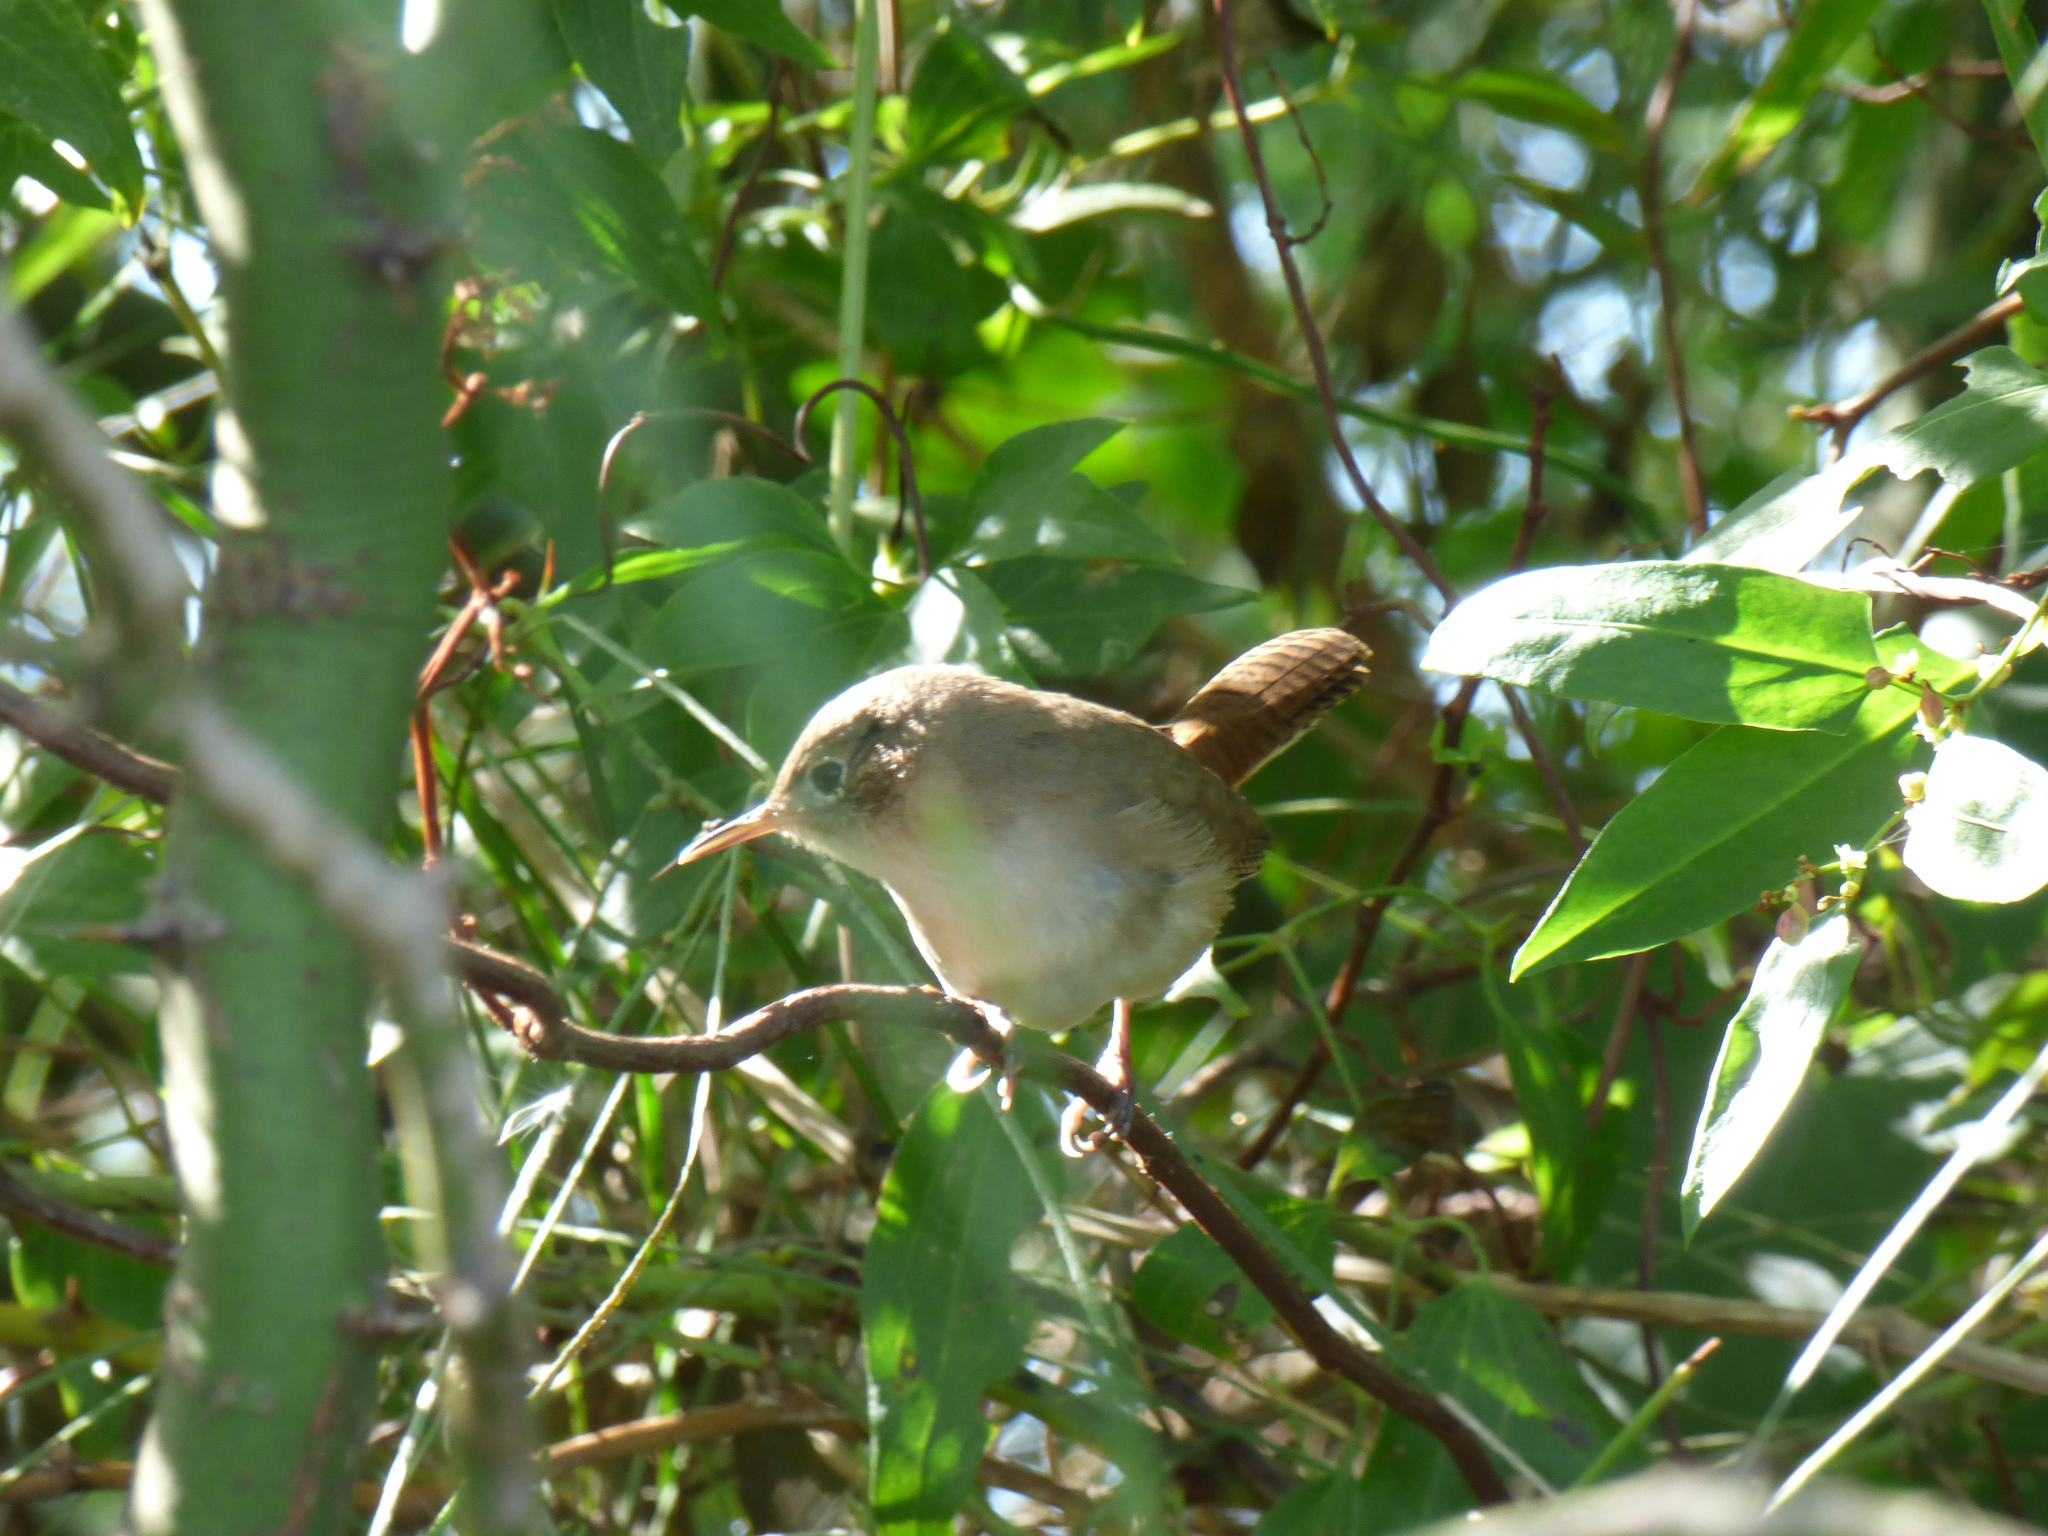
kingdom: Animalia
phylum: Chordata
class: Aves
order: Passeriformes
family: Troglodytidae
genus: Troglodytes
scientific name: Troglodytes aedon
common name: House wren
